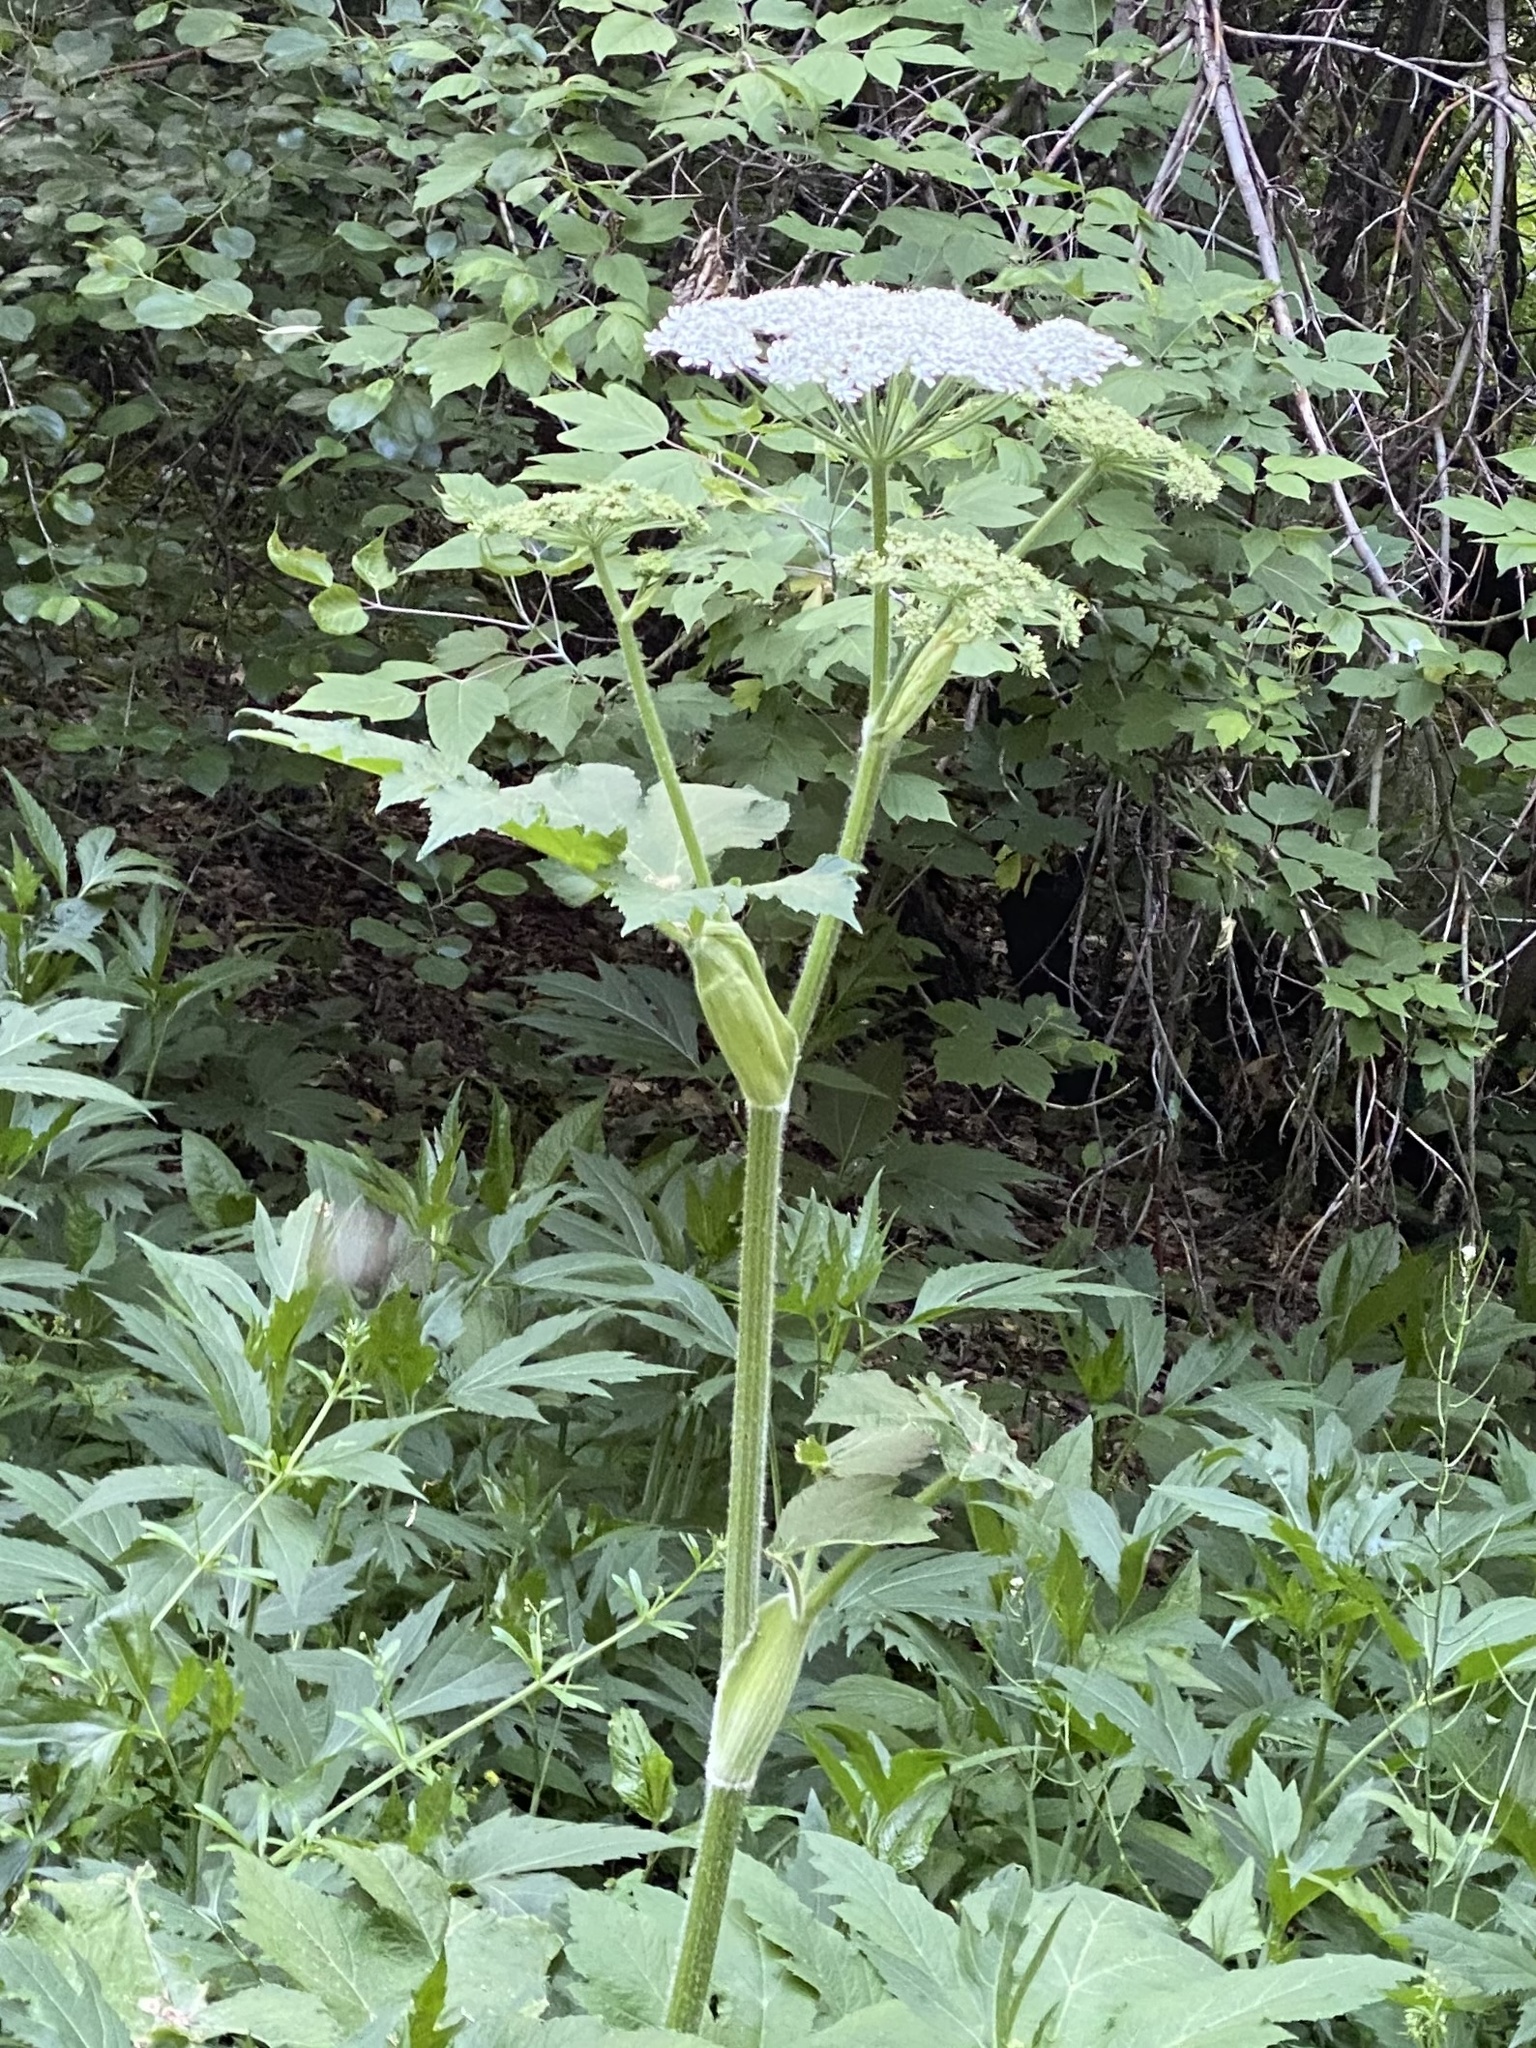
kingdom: Plantae
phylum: Tracheophyta
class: Magnoliopsida
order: Apiales
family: Apiaceae
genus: Heracleum
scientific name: Heracleum maximum
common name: American cow parsnip
